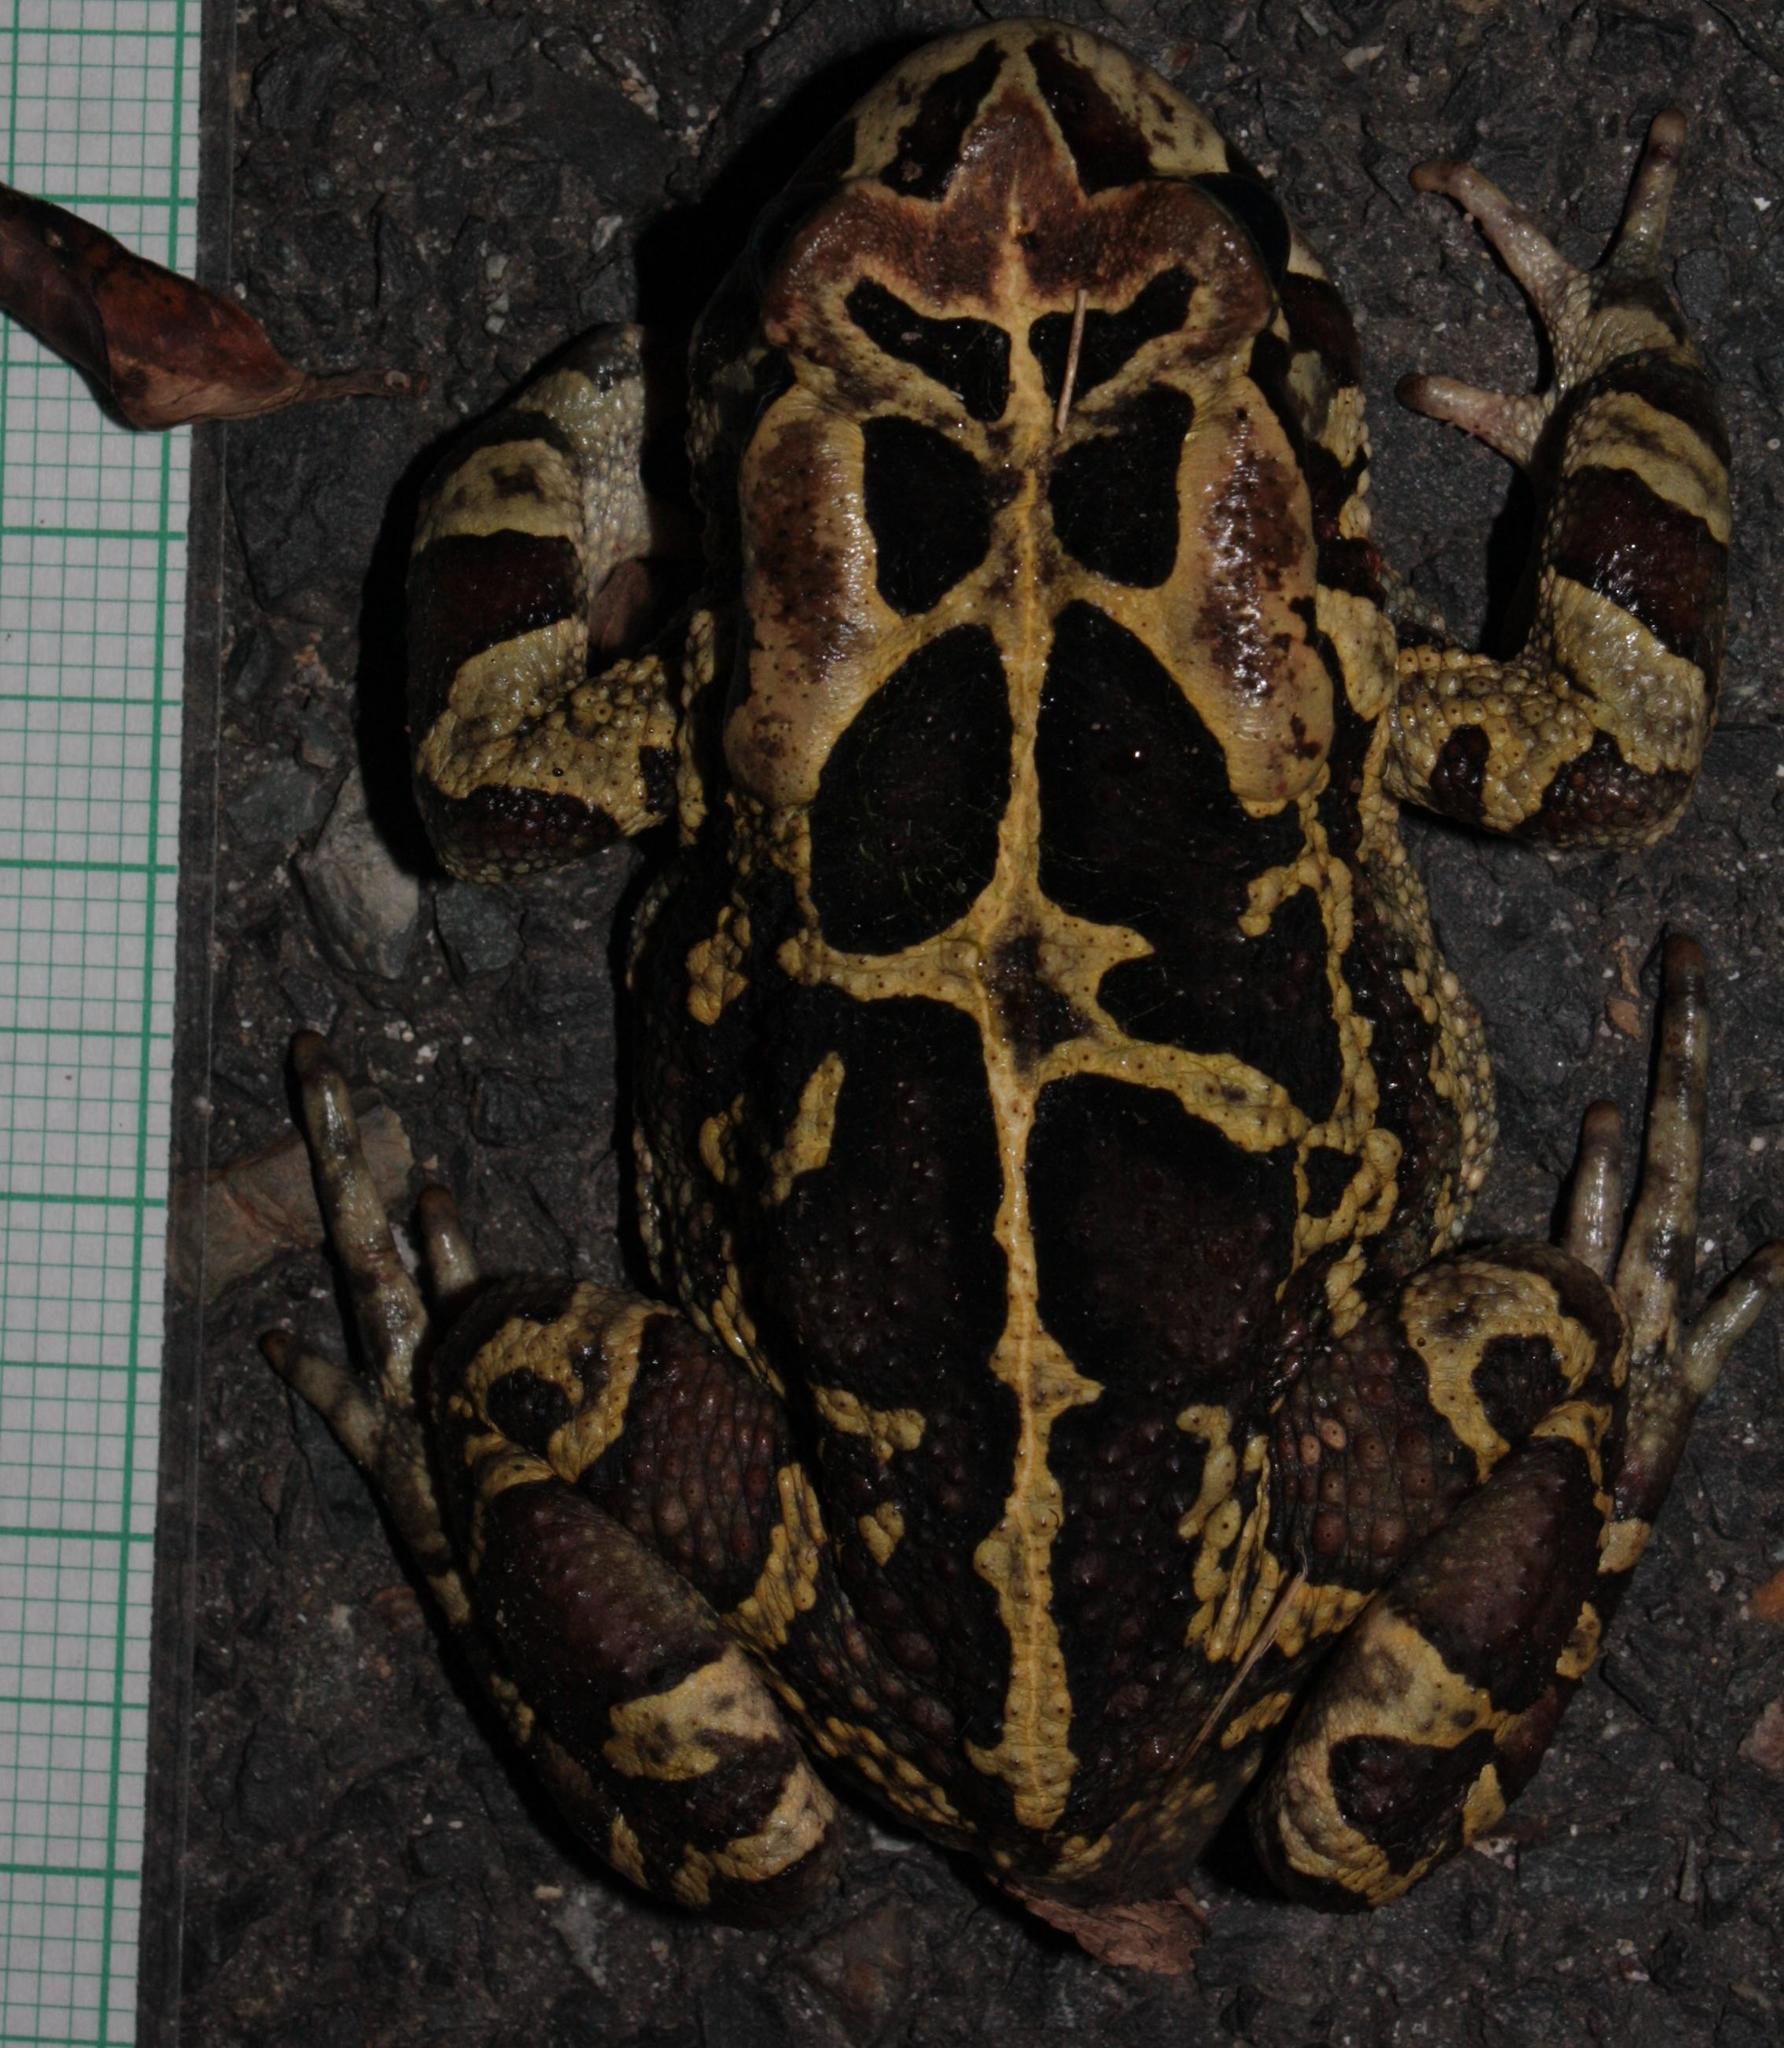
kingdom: Animalia
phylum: Chordata
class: Amphibia
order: Anura
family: Bufonidae
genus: Sclerophrys
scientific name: Sclerophrys pantherina
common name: Panther toad
